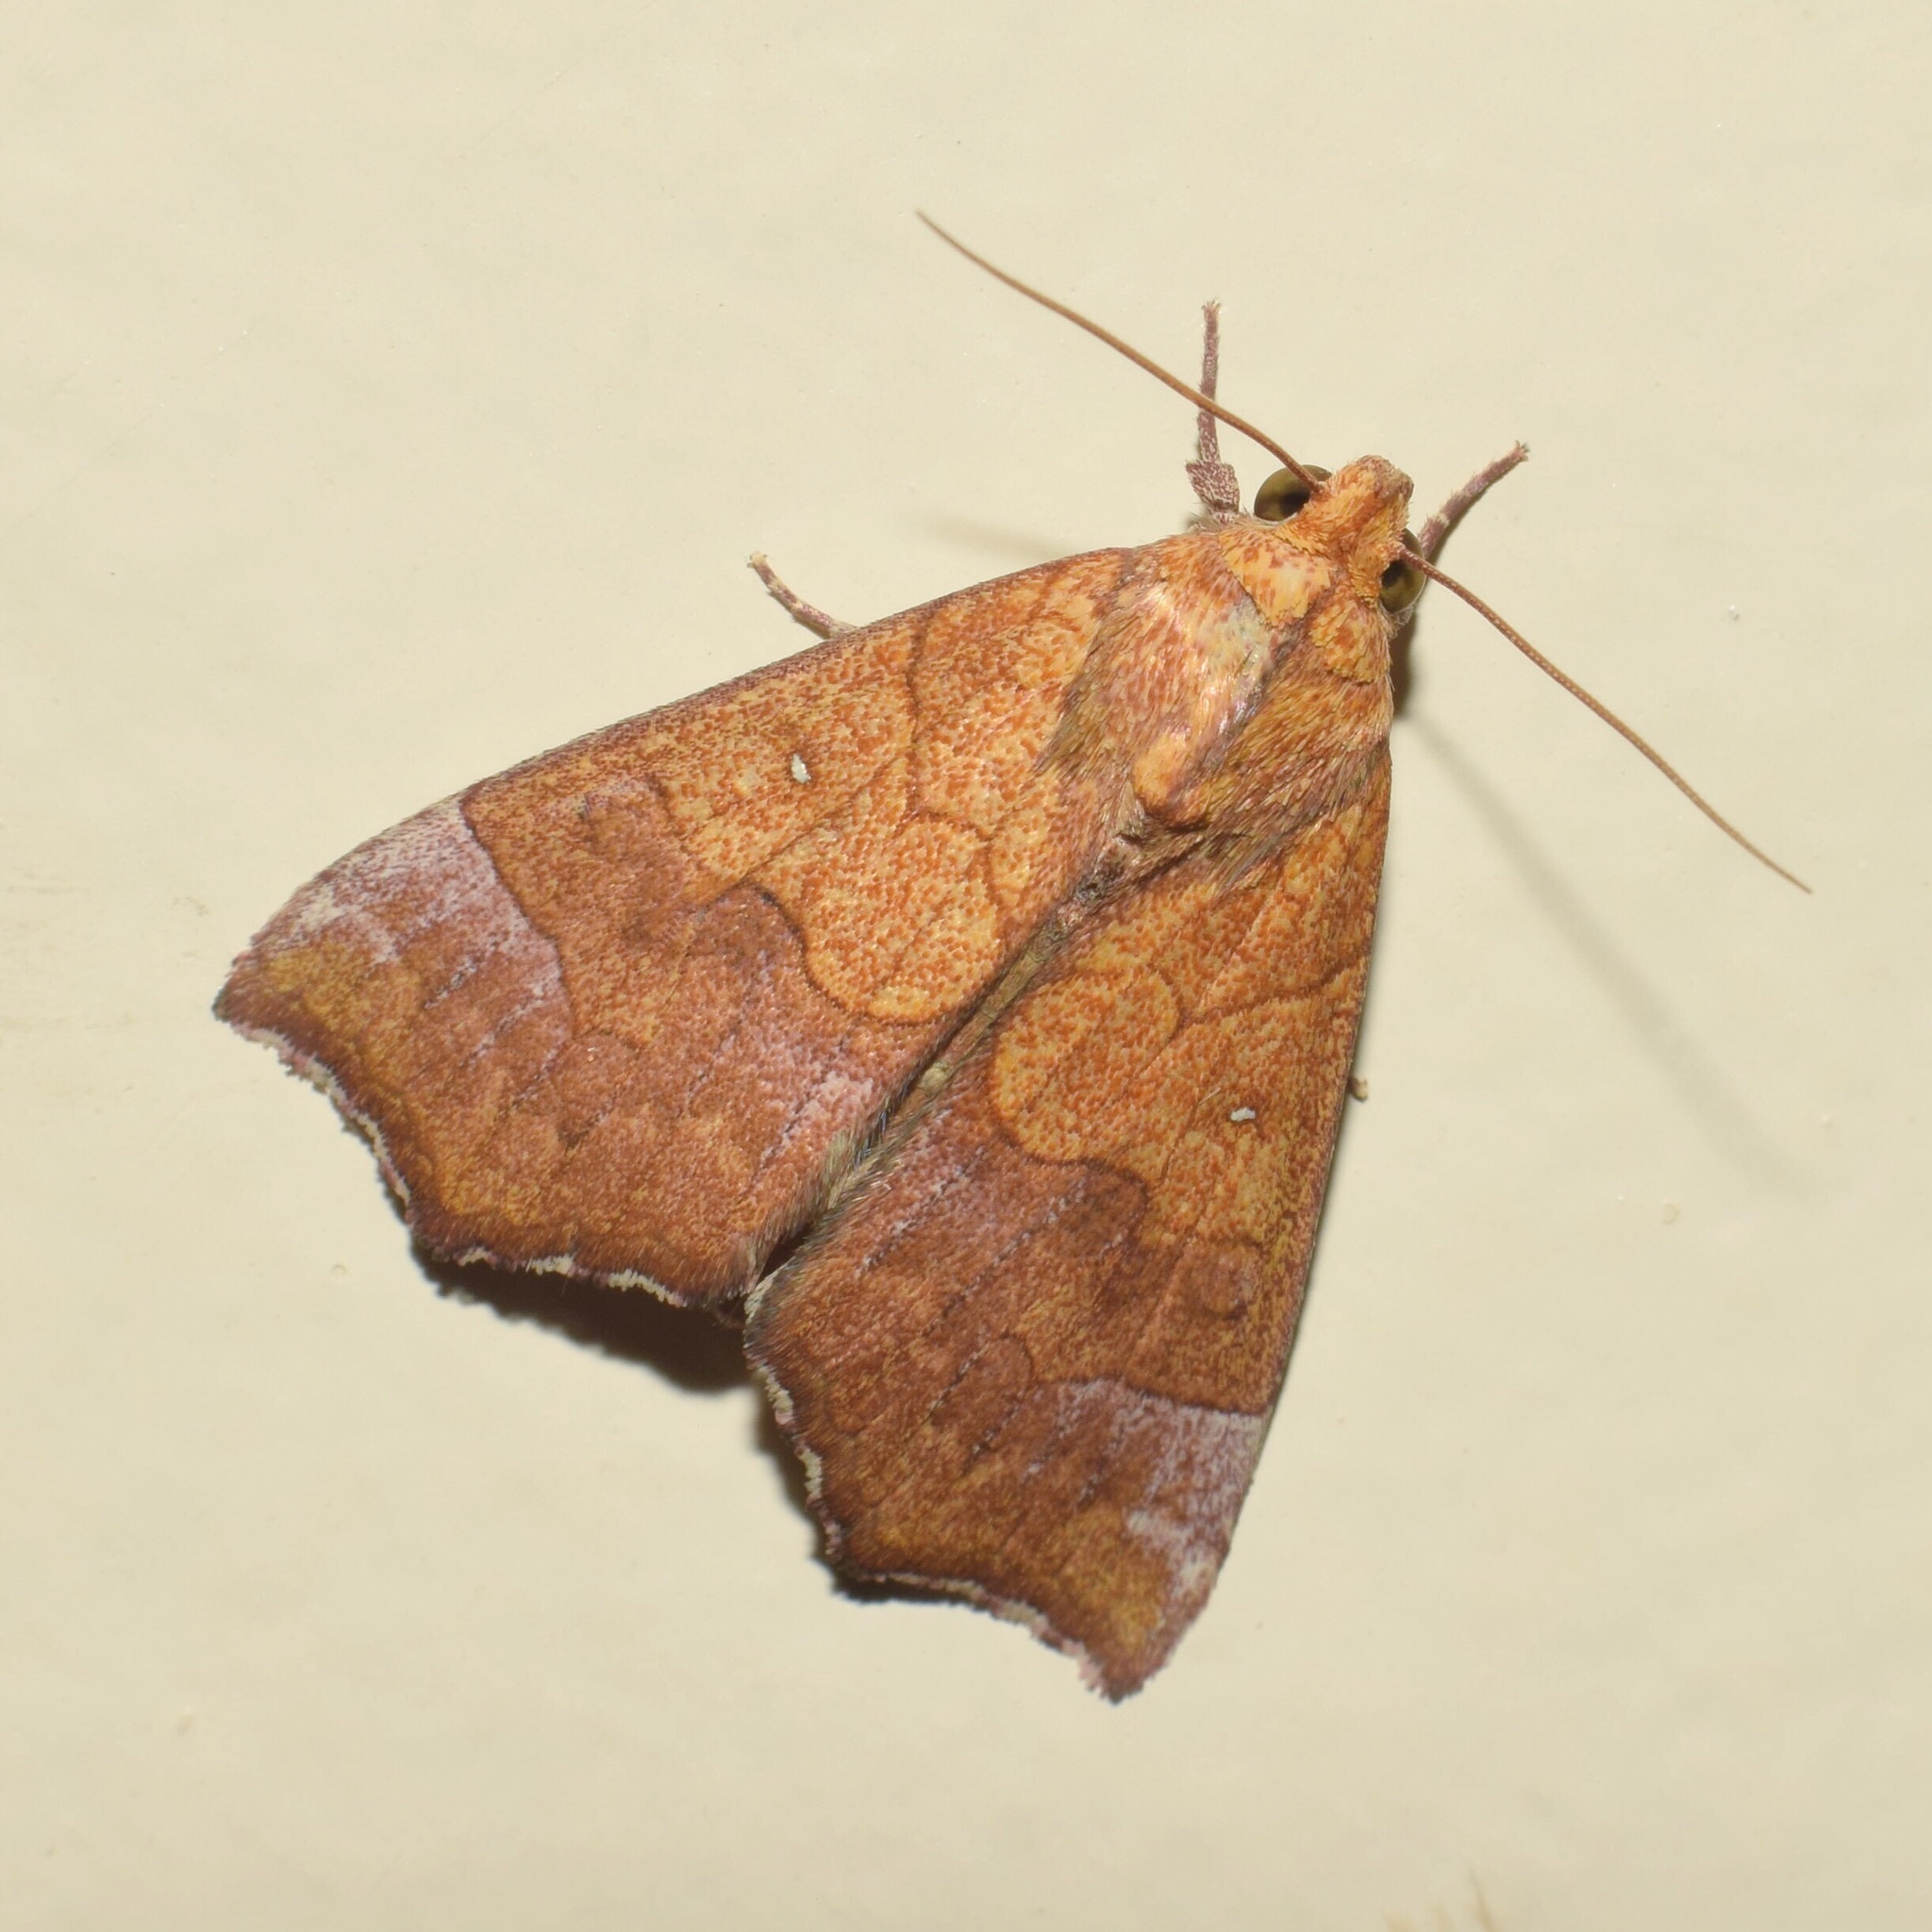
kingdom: Animalia
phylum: Arthropoda
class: Insecta
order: Lepidoptera
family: Erebidae
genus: Anomis
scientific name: Anomis flava
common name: Moth
